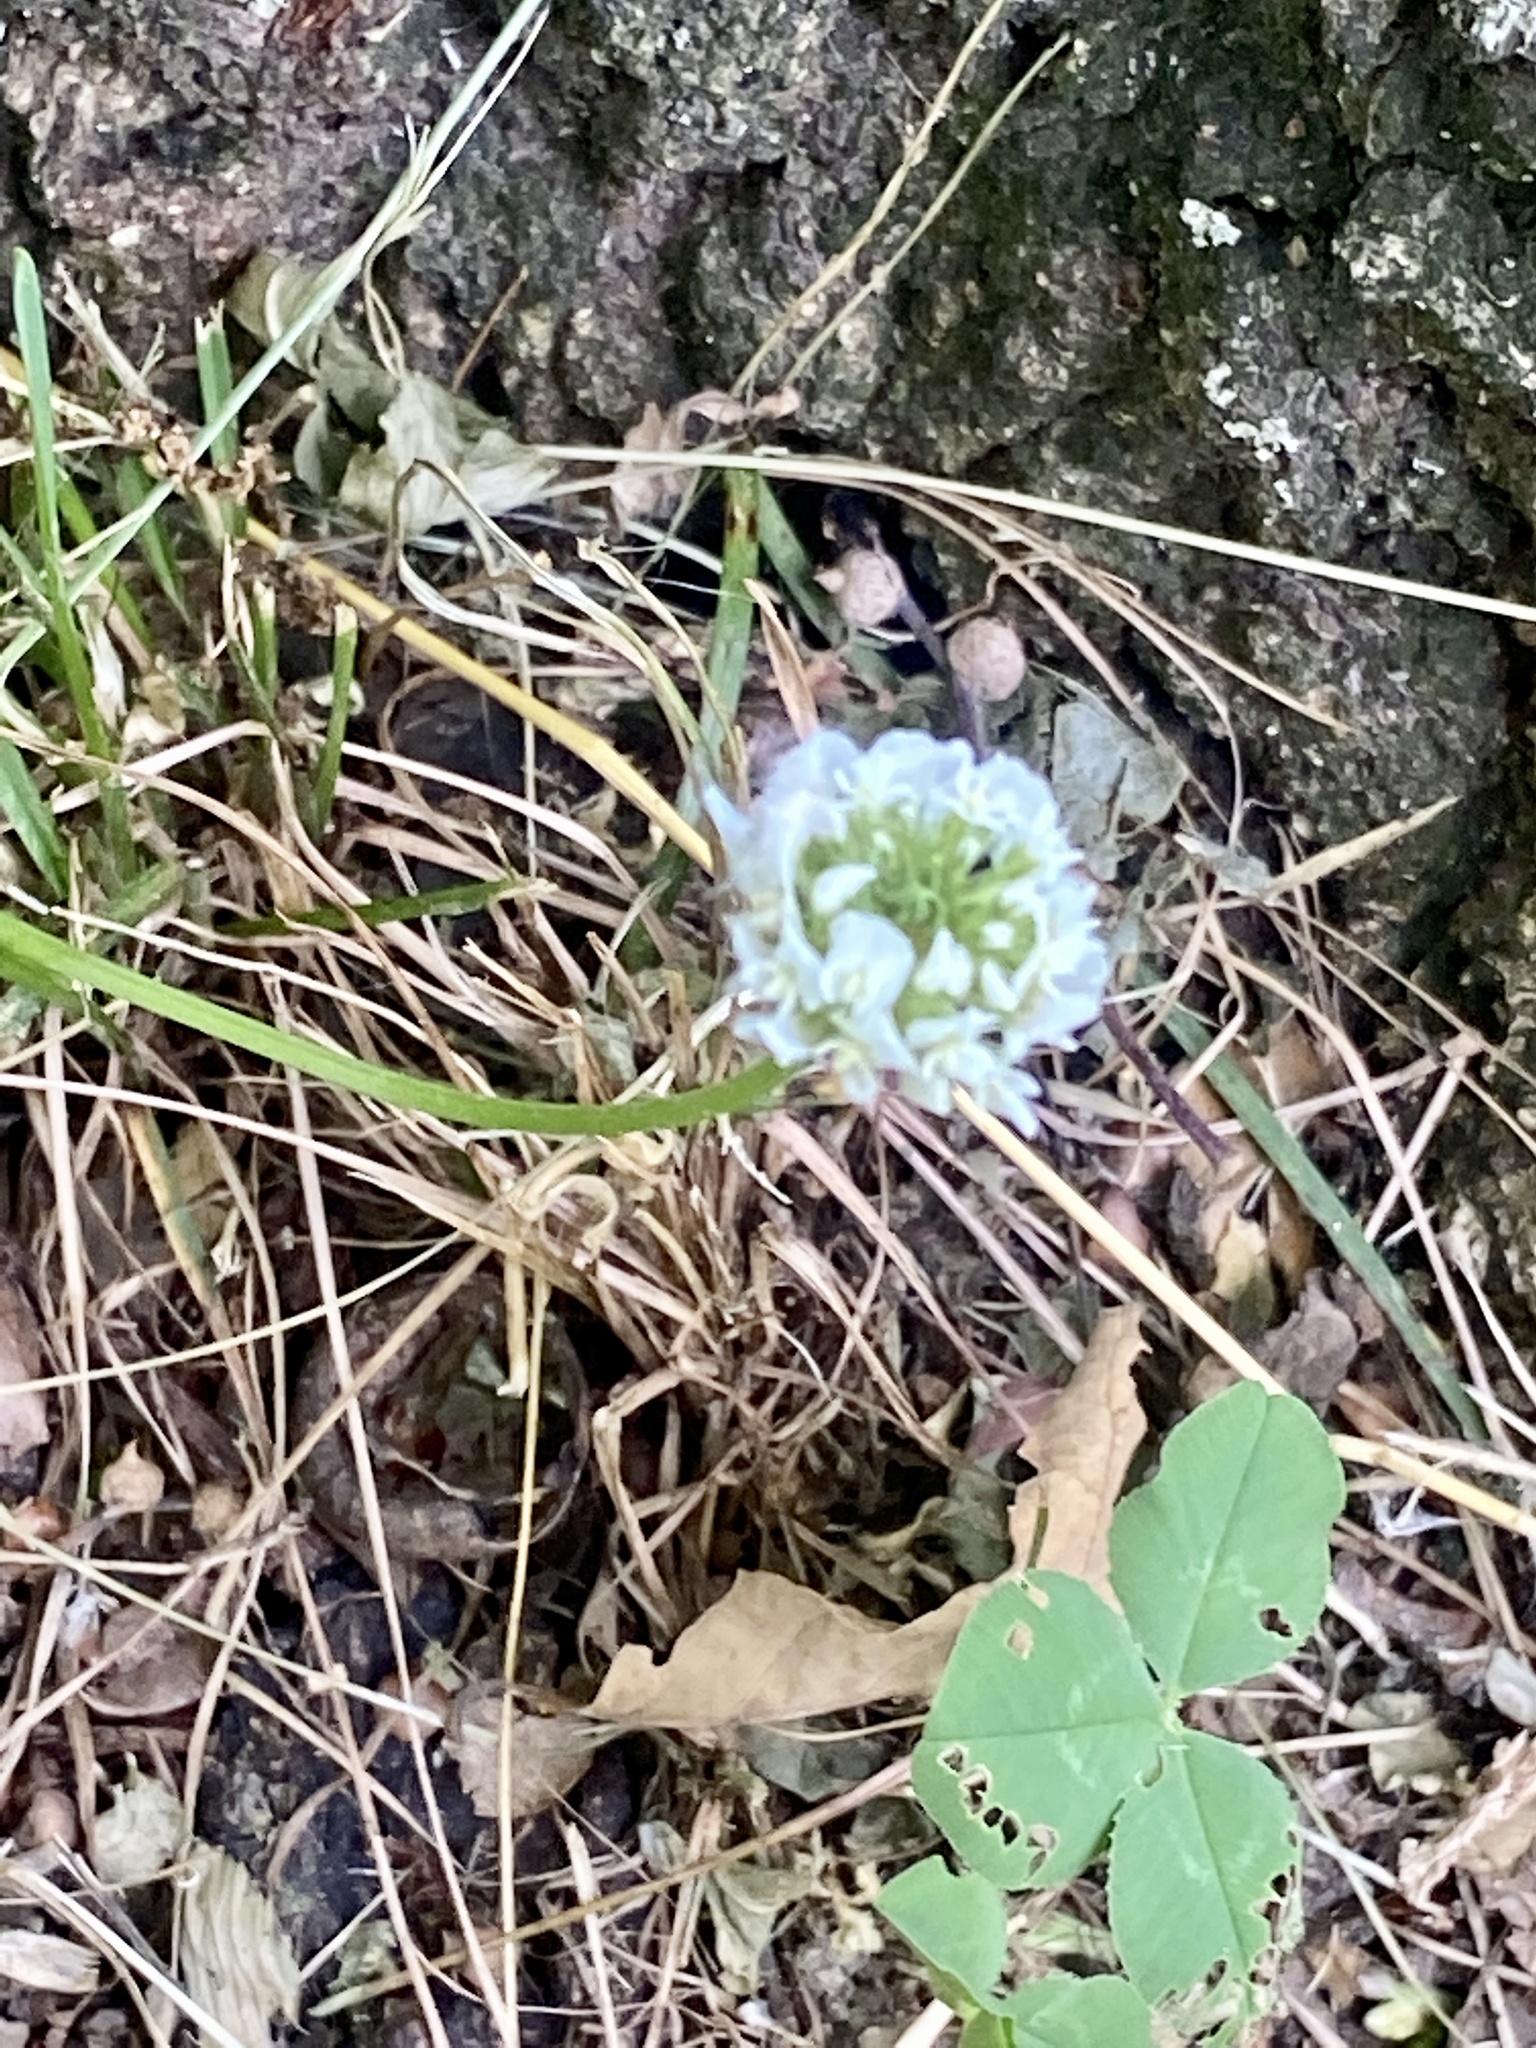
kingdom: Plantae
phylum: Tracheophyta
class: Magnoliopsida
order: Fabales
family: Fabaceae
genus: Trifolium
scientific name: Trifolium repens
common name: White clover
